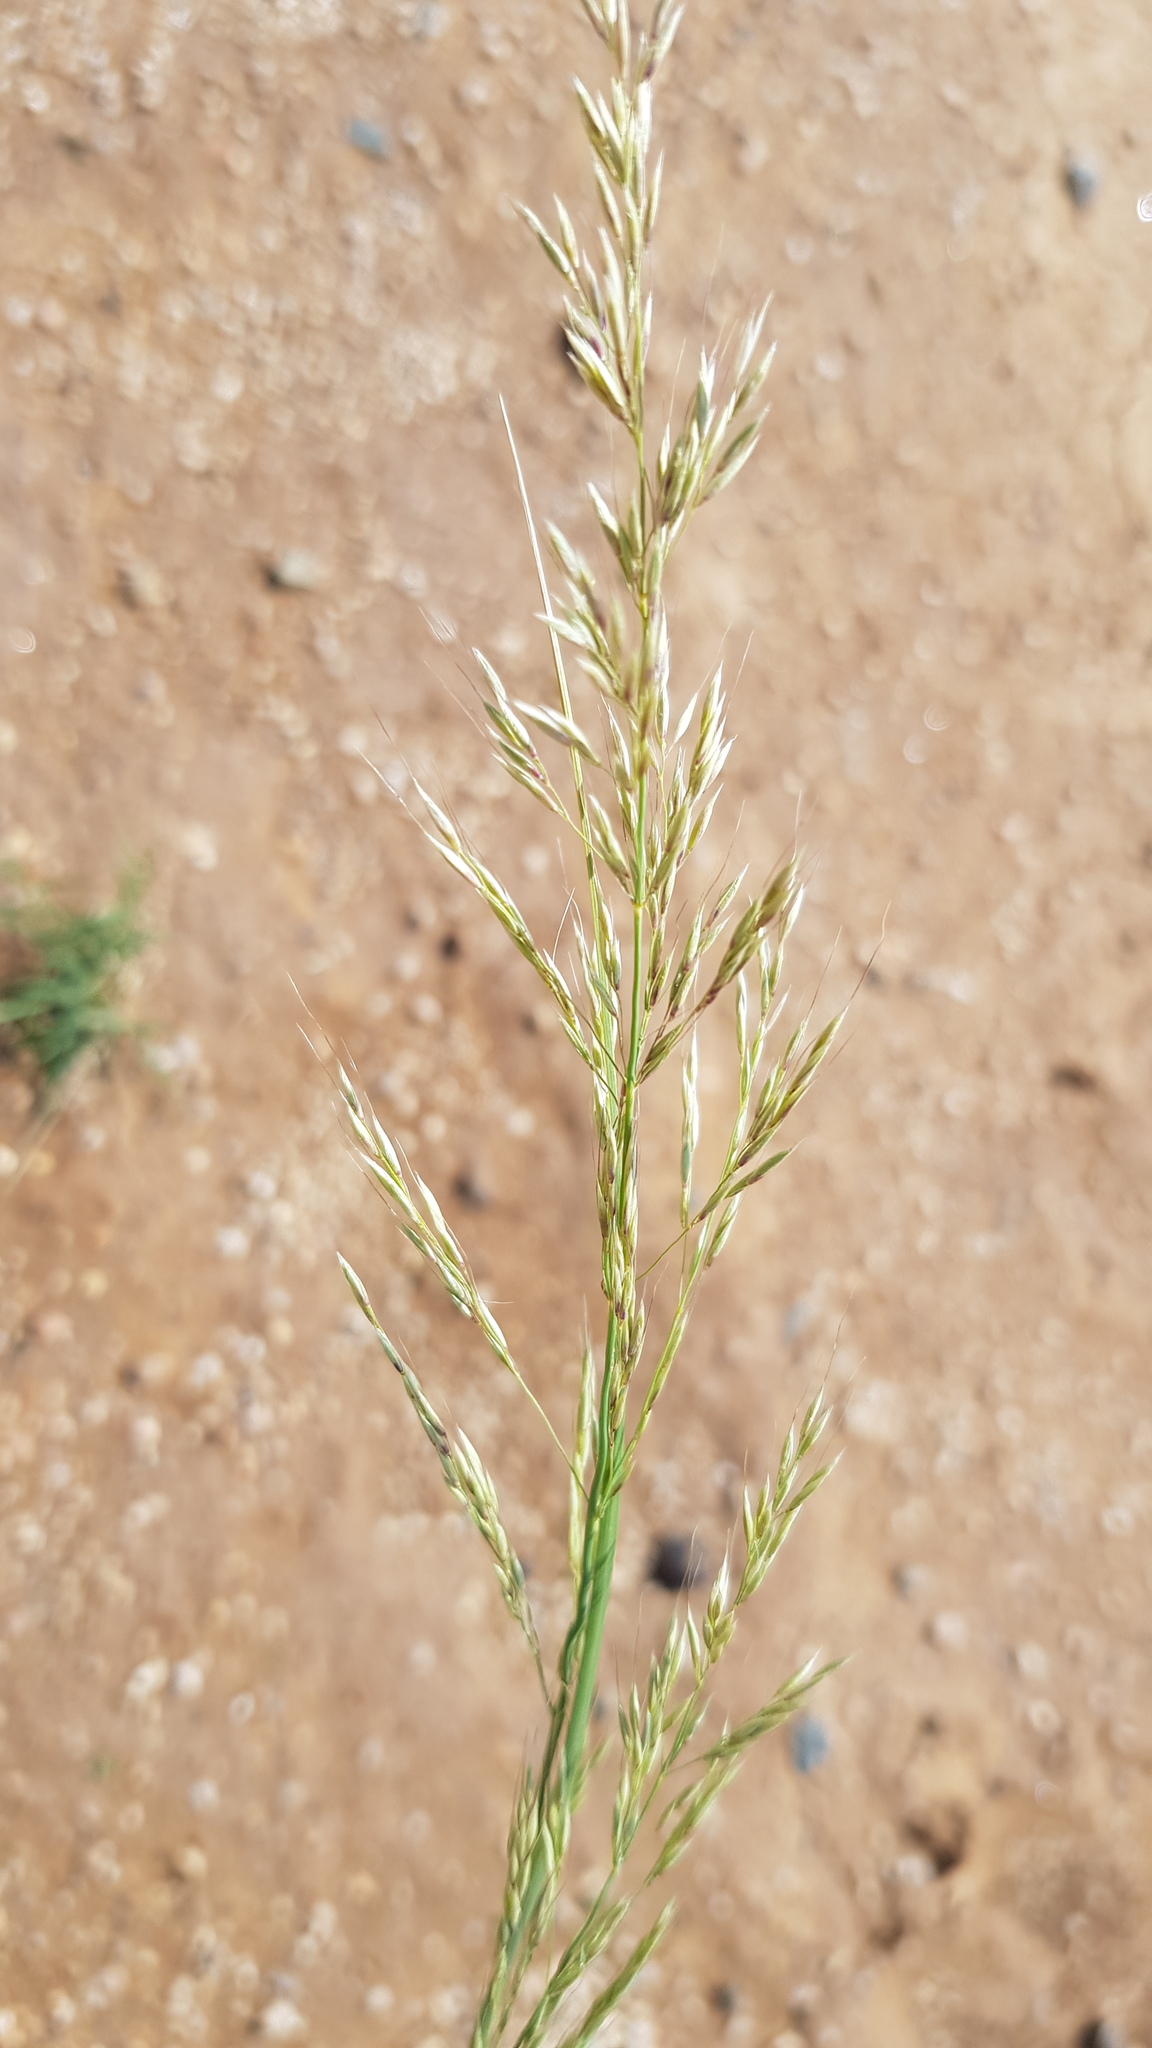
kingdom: Plantae
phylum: Tracheophyta
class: Liliopsida
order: Poales
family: Poaceae
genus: Neotrinia
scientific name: Neotrinia splendens
